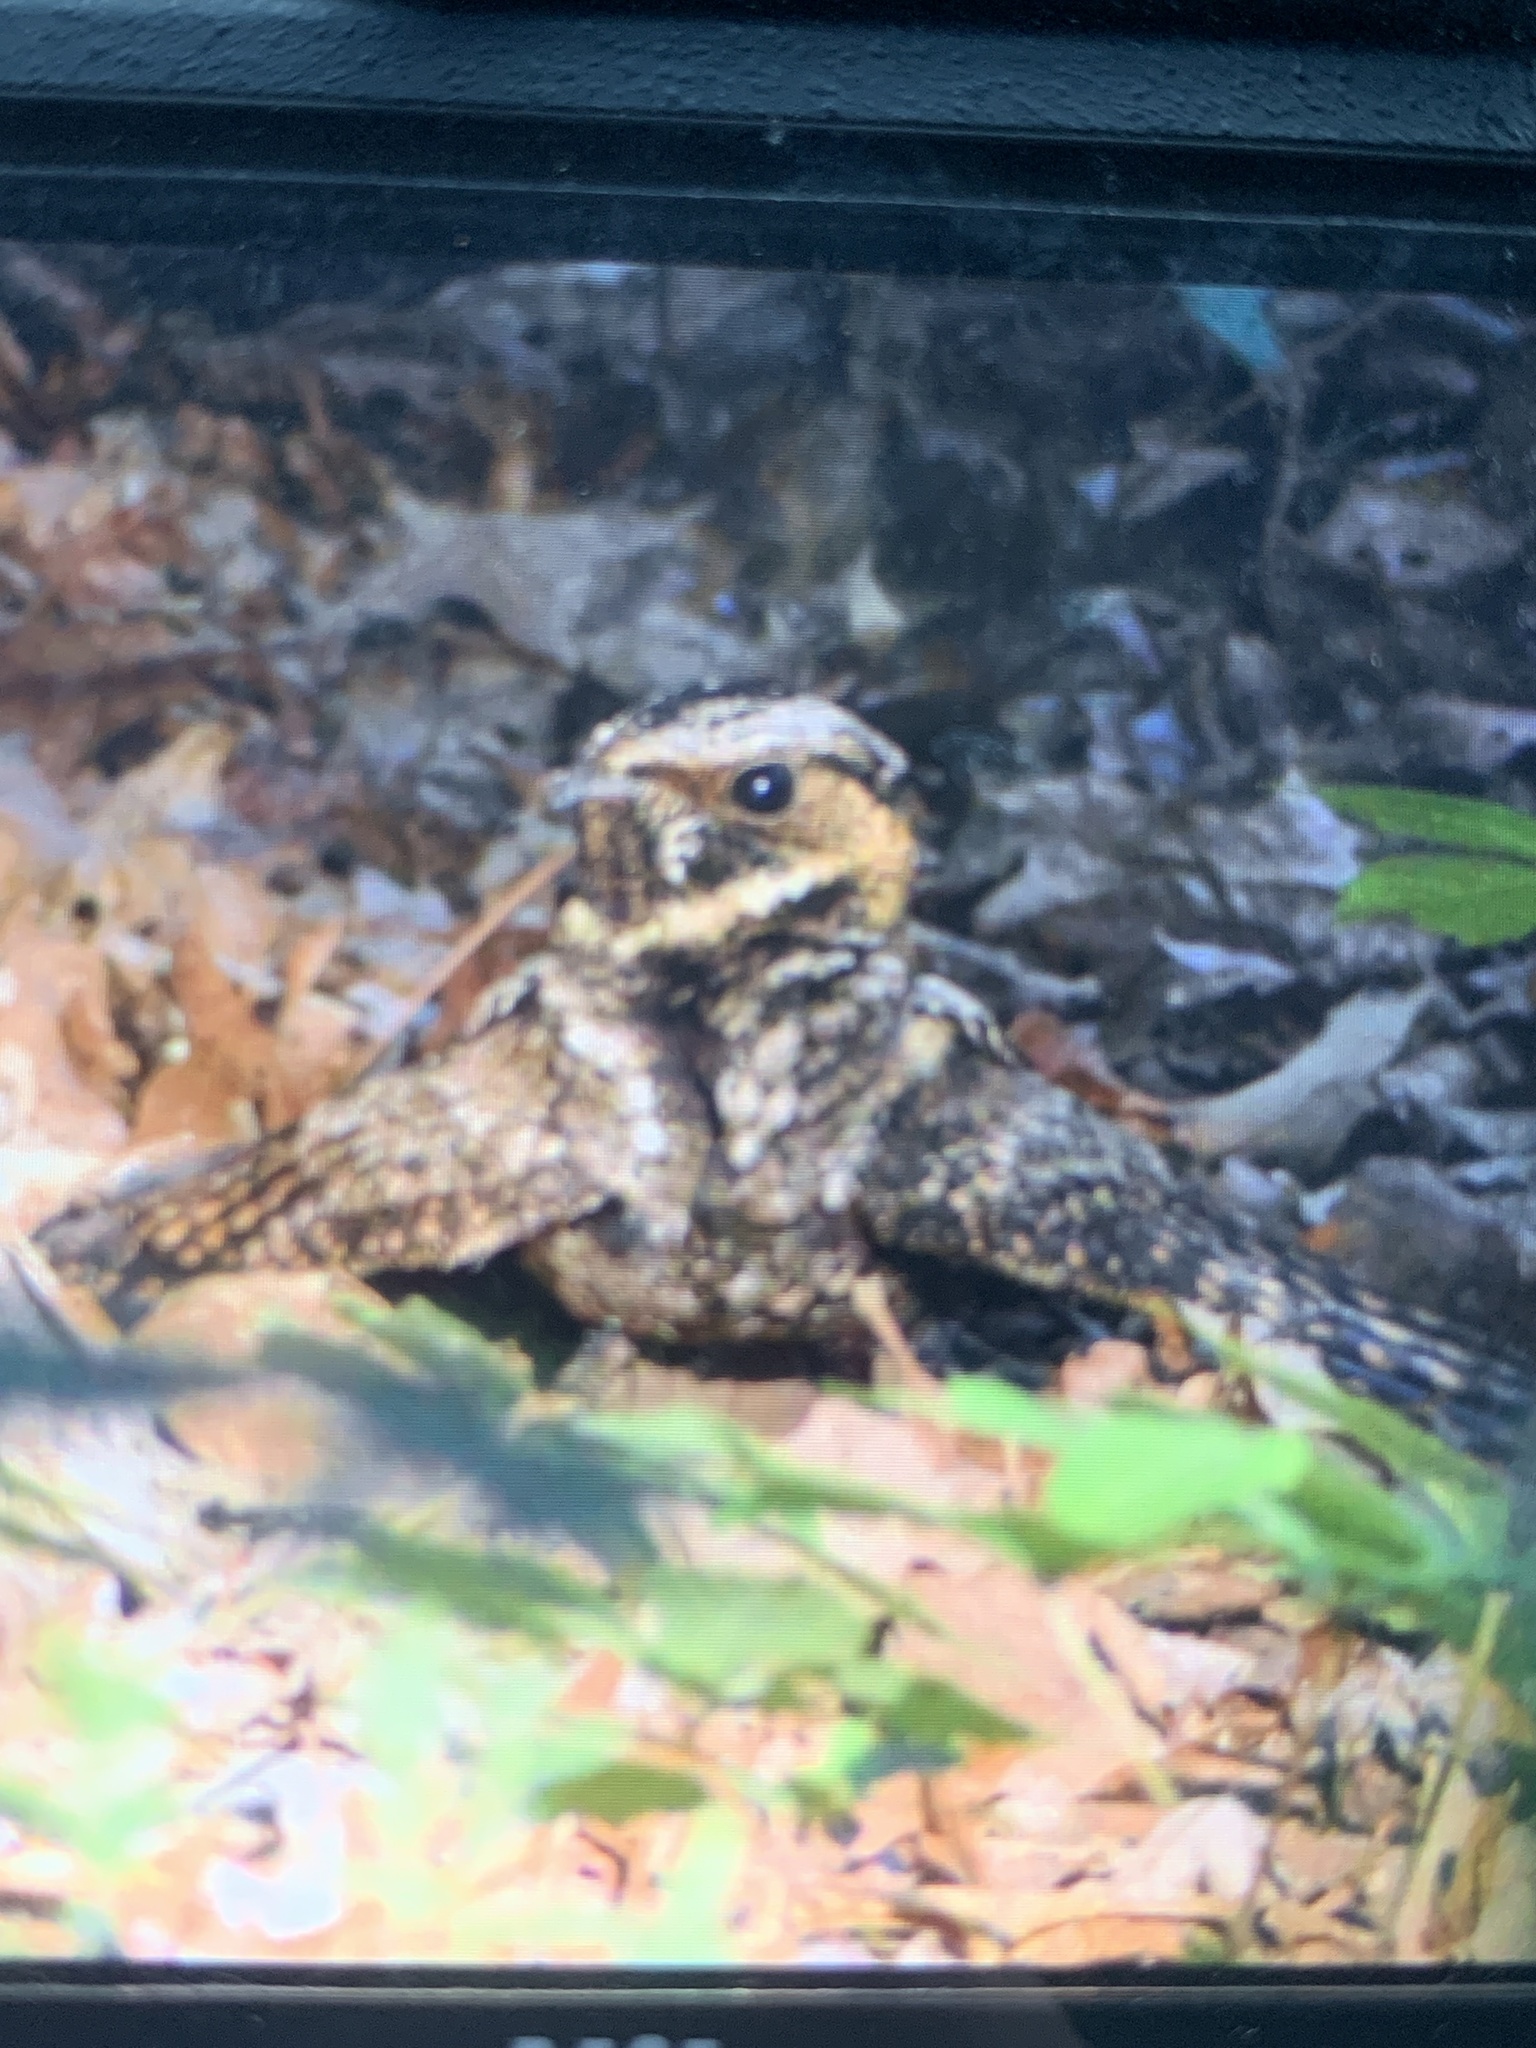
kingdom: Animalia
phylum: Chordata
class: Aves
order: Caprimulgiformes
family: Caprimulgidae
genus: Antrostomus
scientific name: Antrostomus vociferus
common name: Eastern whip-poor-will
